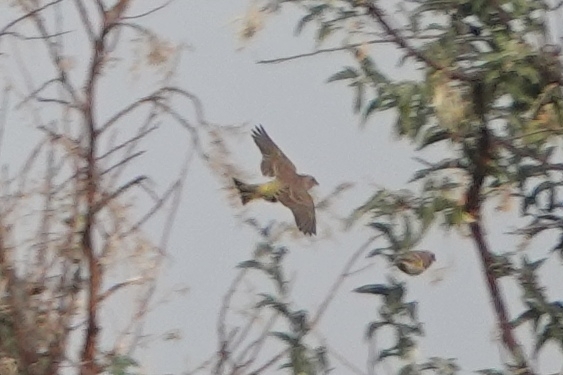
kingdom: Plantae
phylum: Tracheophyta
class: Liliopsida
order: Poales
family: Poaceae
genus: Chloris
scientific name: Chloris chloris
